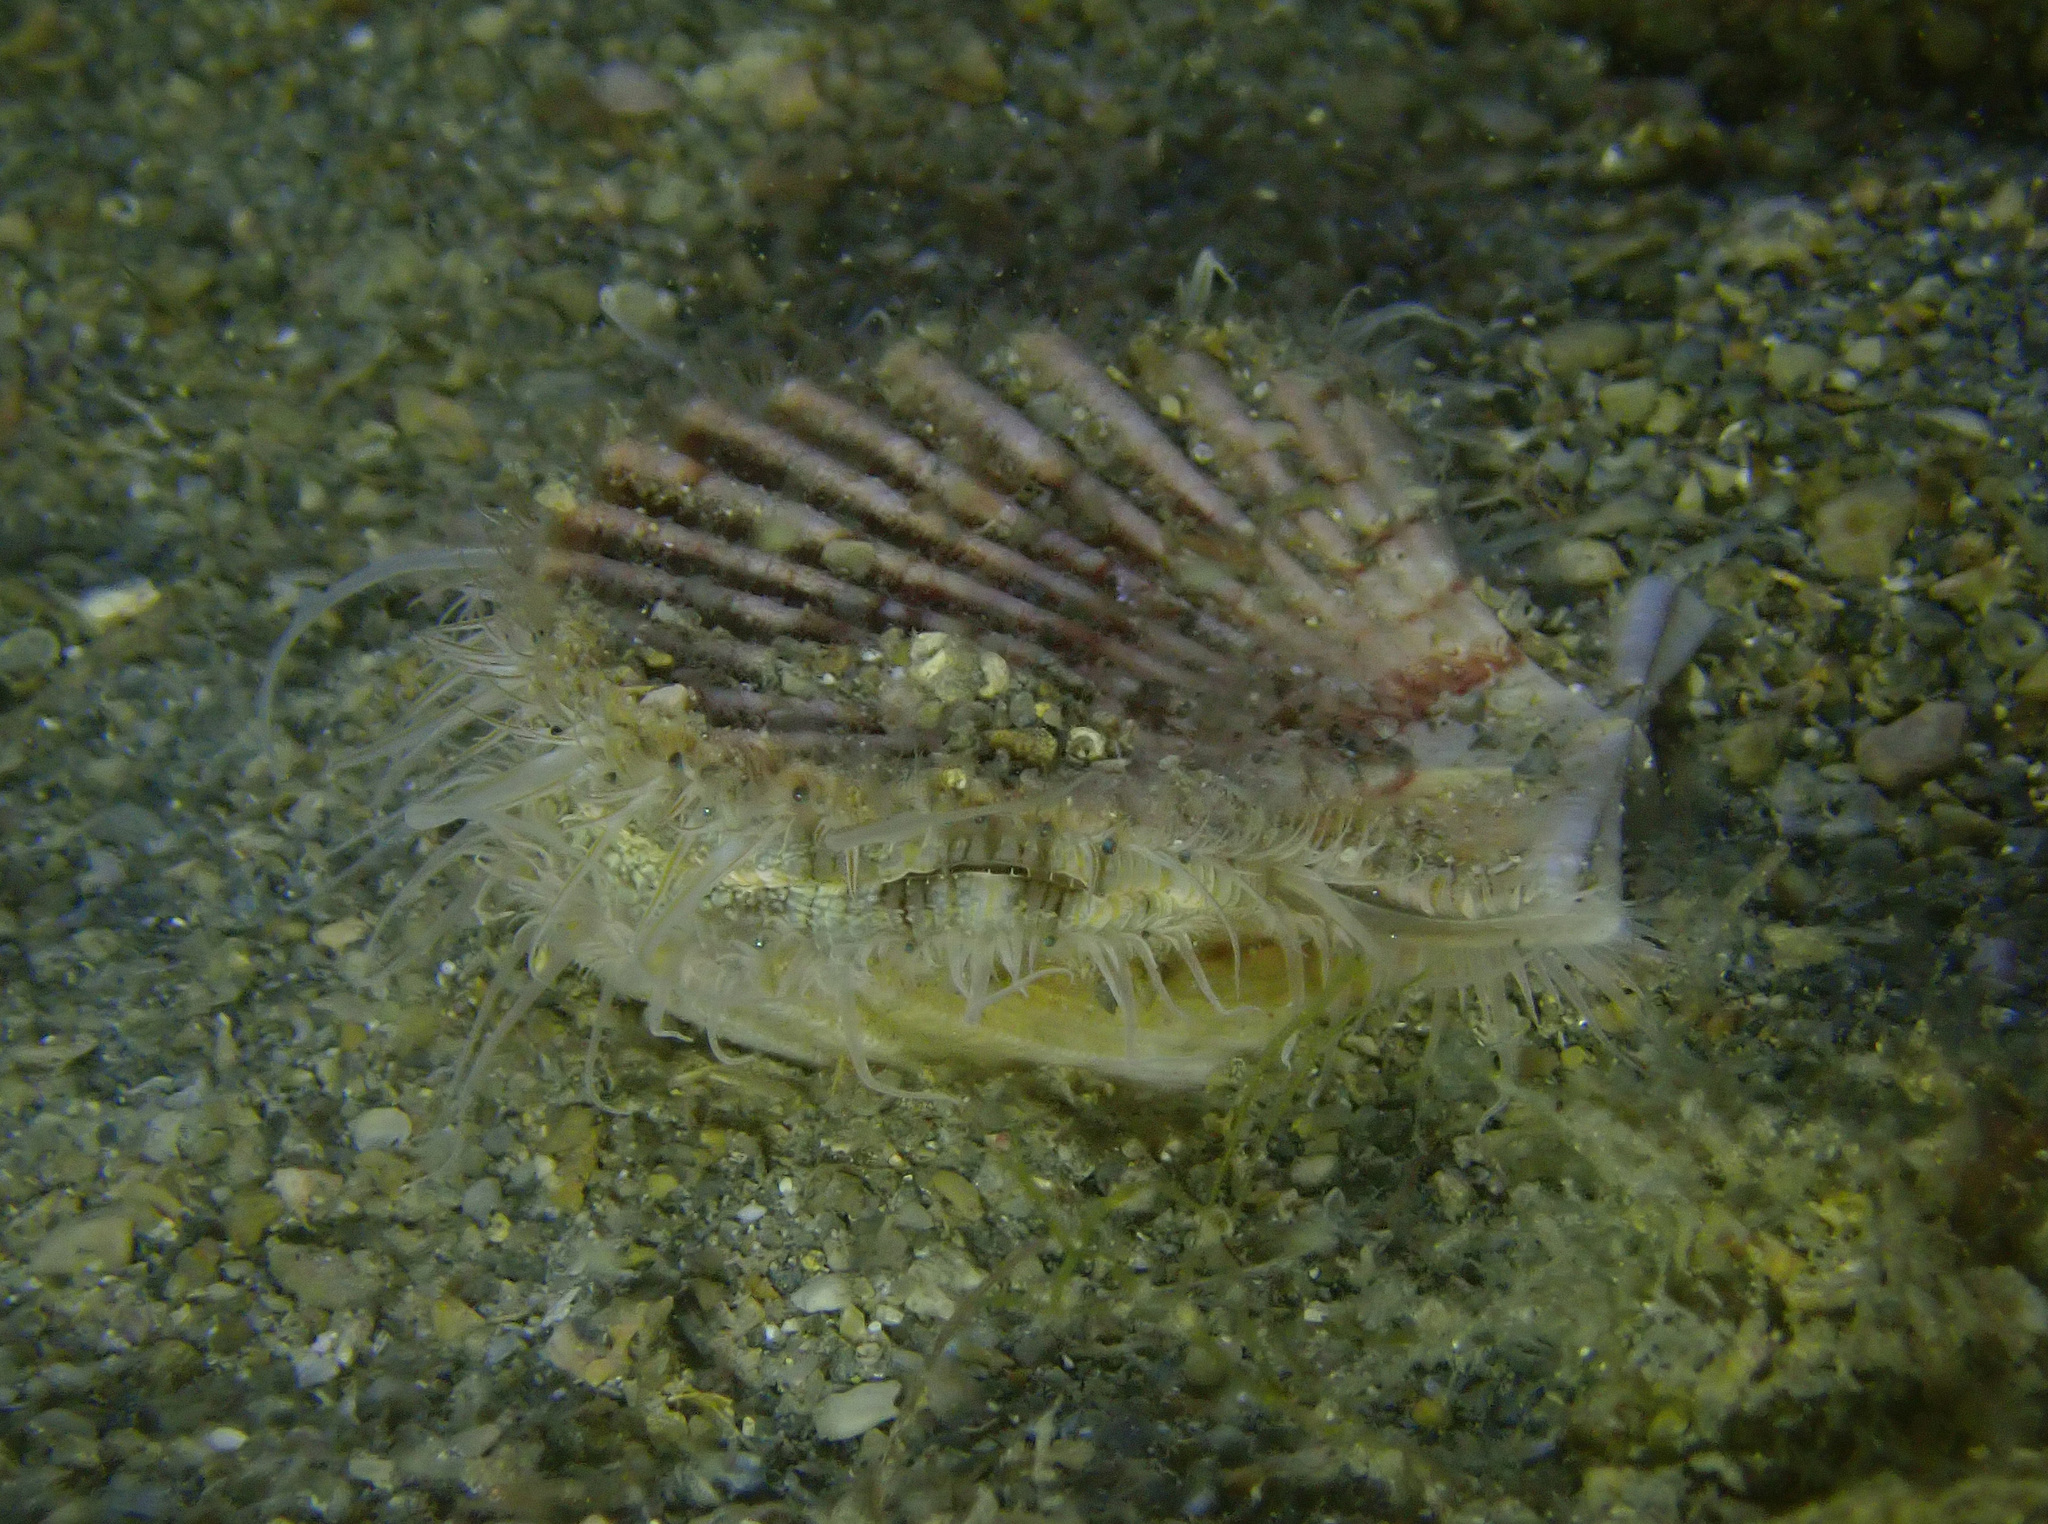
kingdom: Animalia
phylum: Mollusca
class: Bivalvia
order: Pectinida
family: Pectinidae
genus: Pecten
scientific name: Pecten jacobaeus
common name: St.james's scallop
